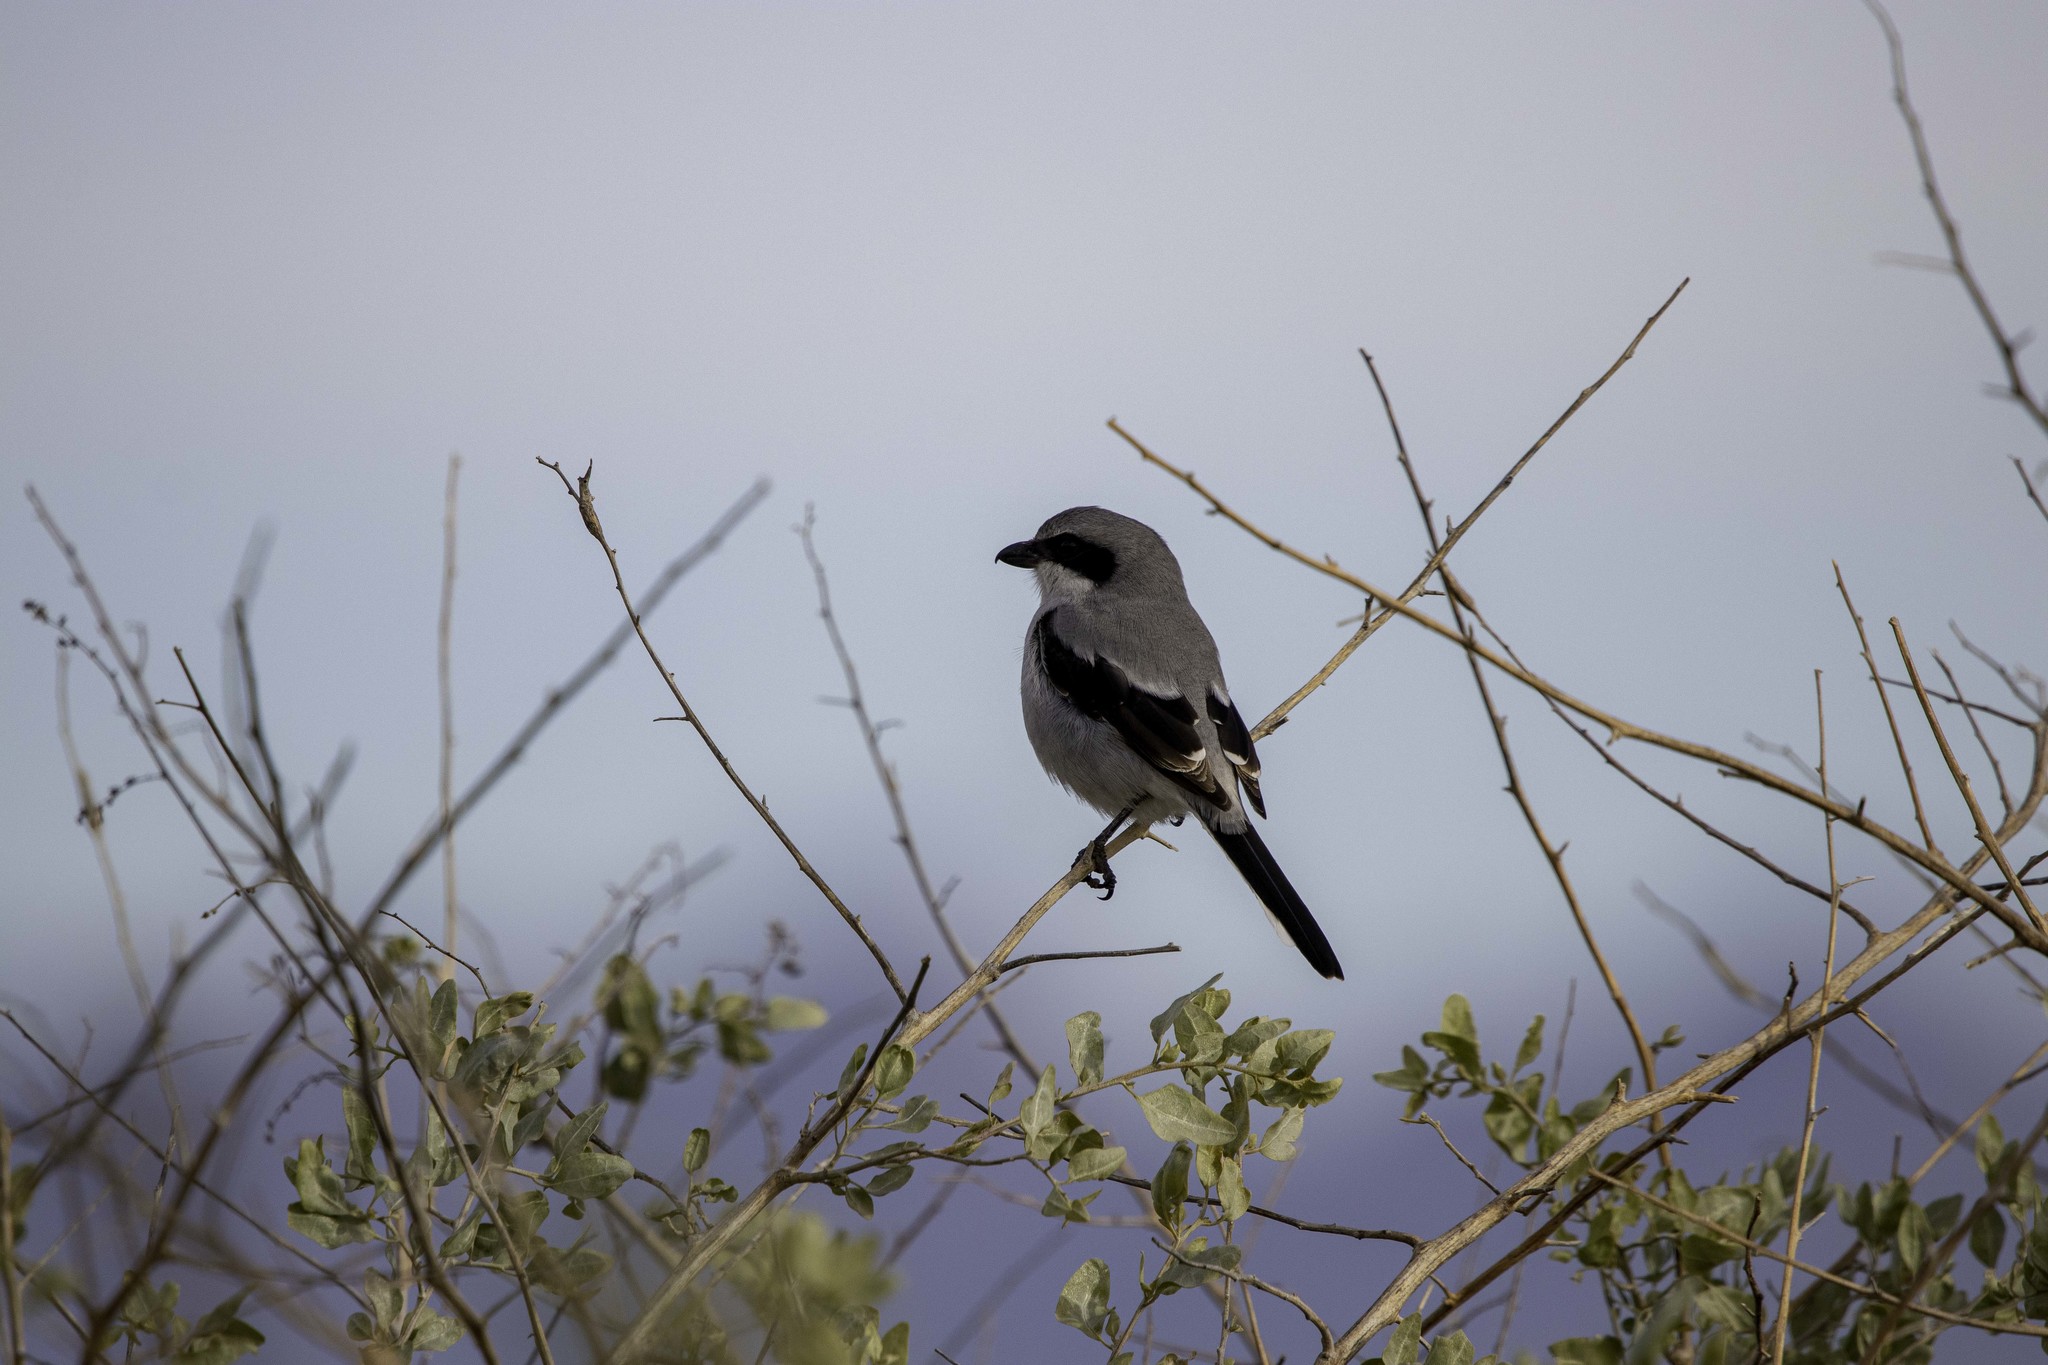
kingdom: Animalia
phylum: Chordata
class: Aves
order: Passeriformes
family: Laniidae
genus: Lanius
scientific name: Lanius ludovicianus
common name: Loggerhead shrike
